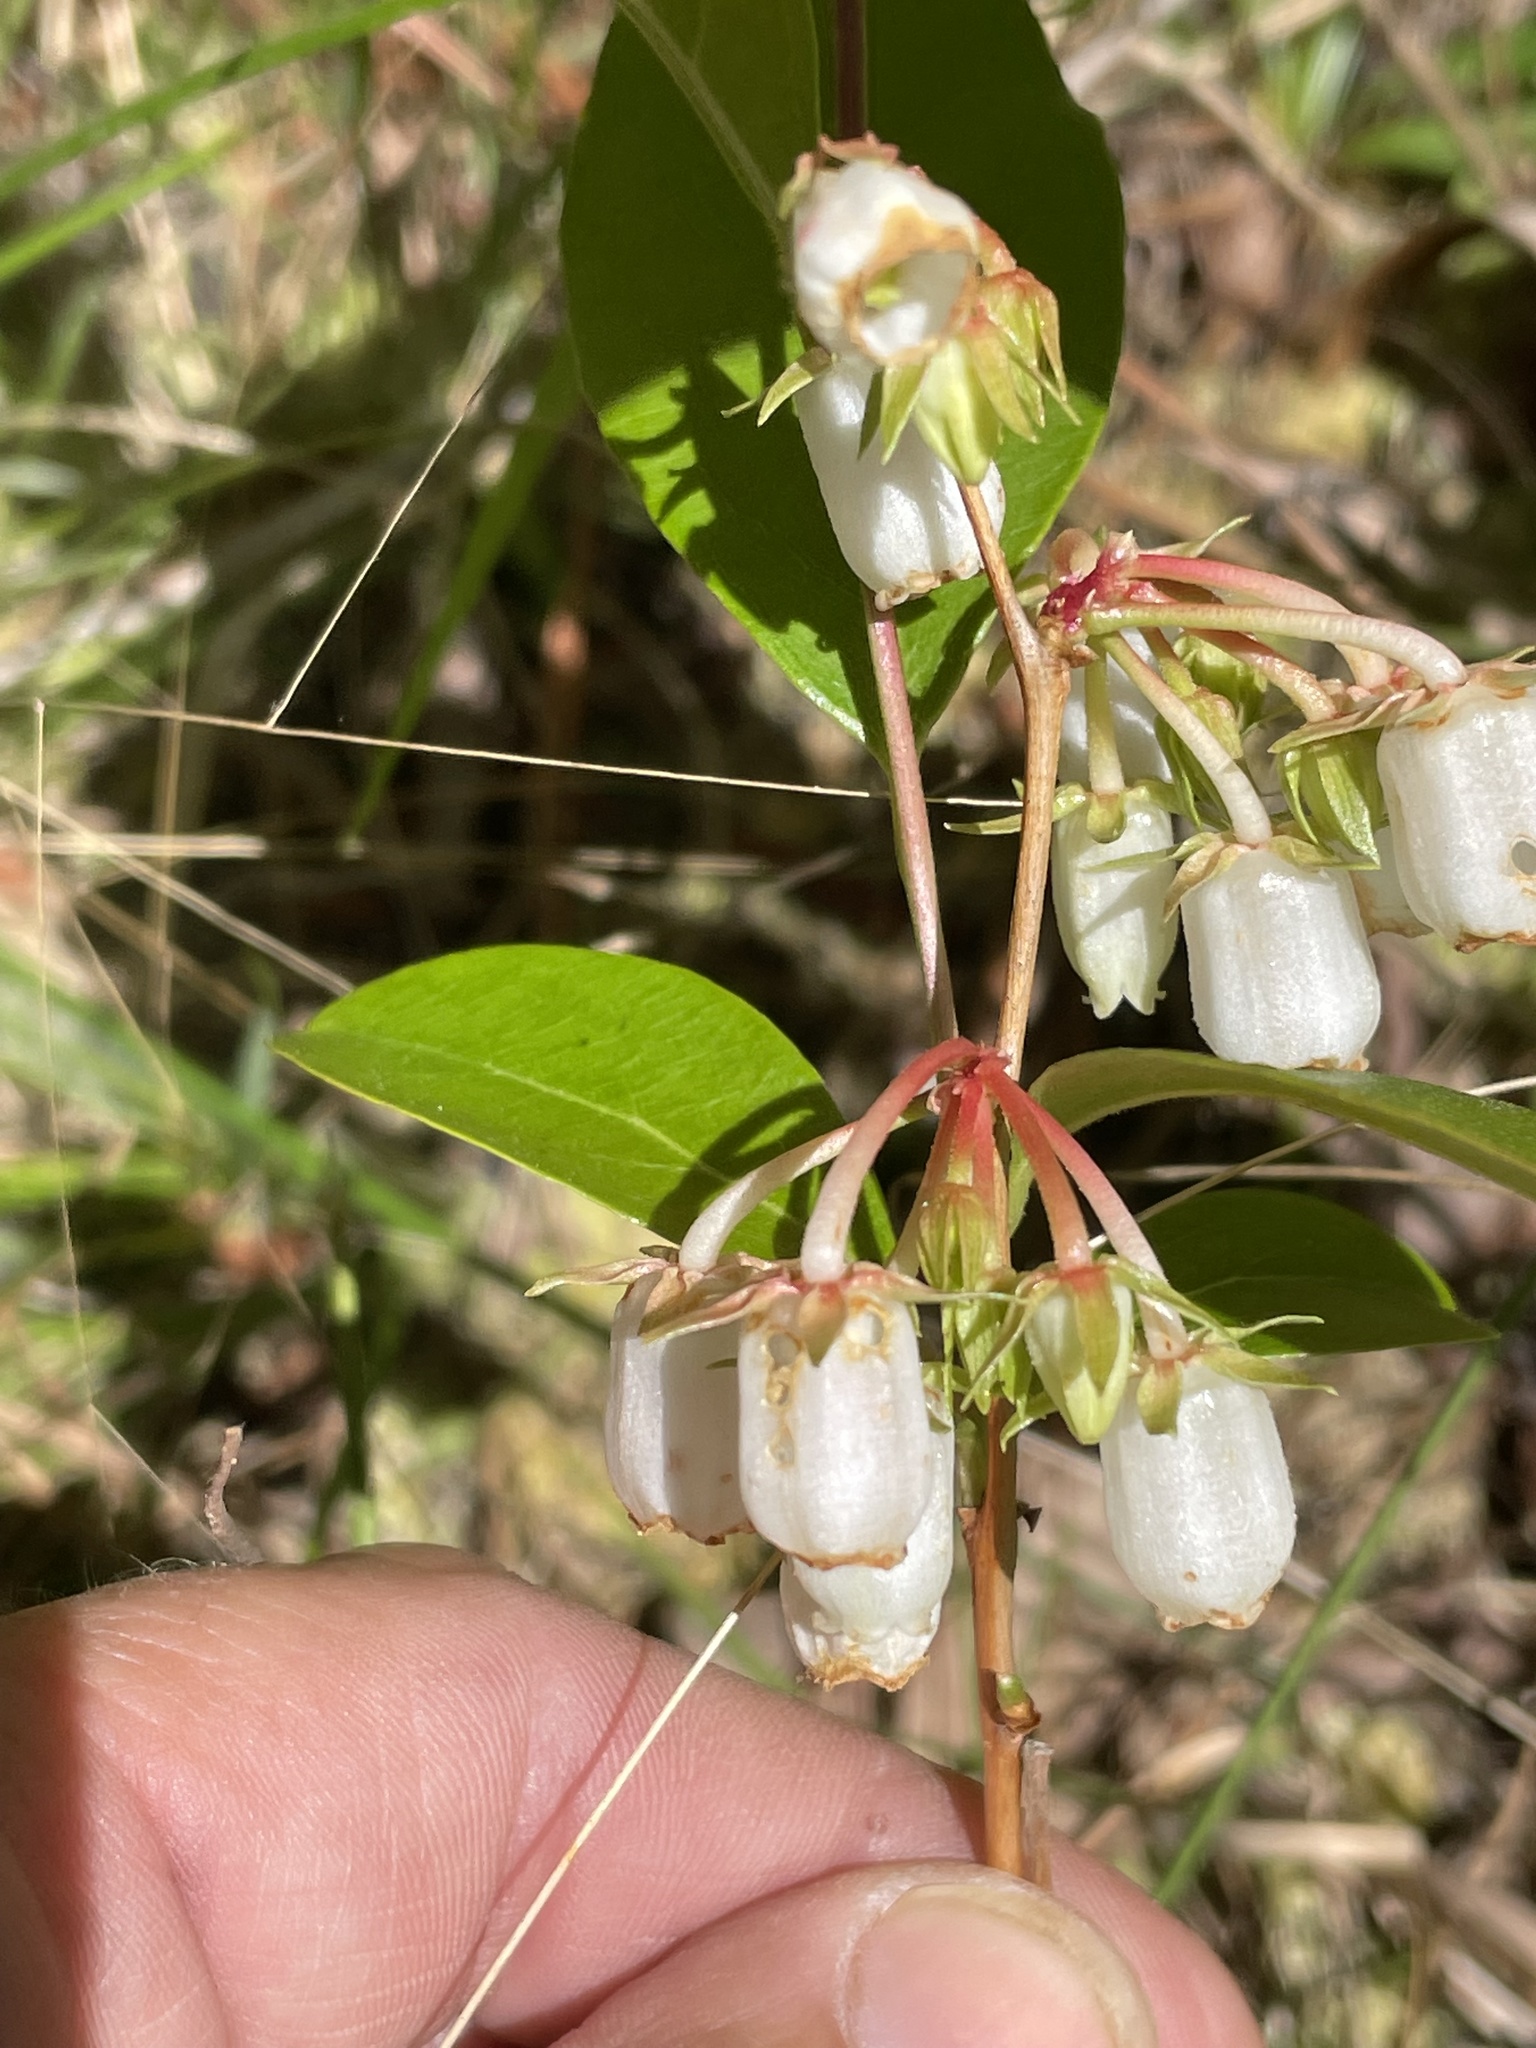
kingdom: Plantae
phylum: Tracheophyta
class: Magnoliopsida
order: Ericales
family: Ericaceae
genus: Lyonia
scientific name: Lyonia mariana
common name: Staggerbush
